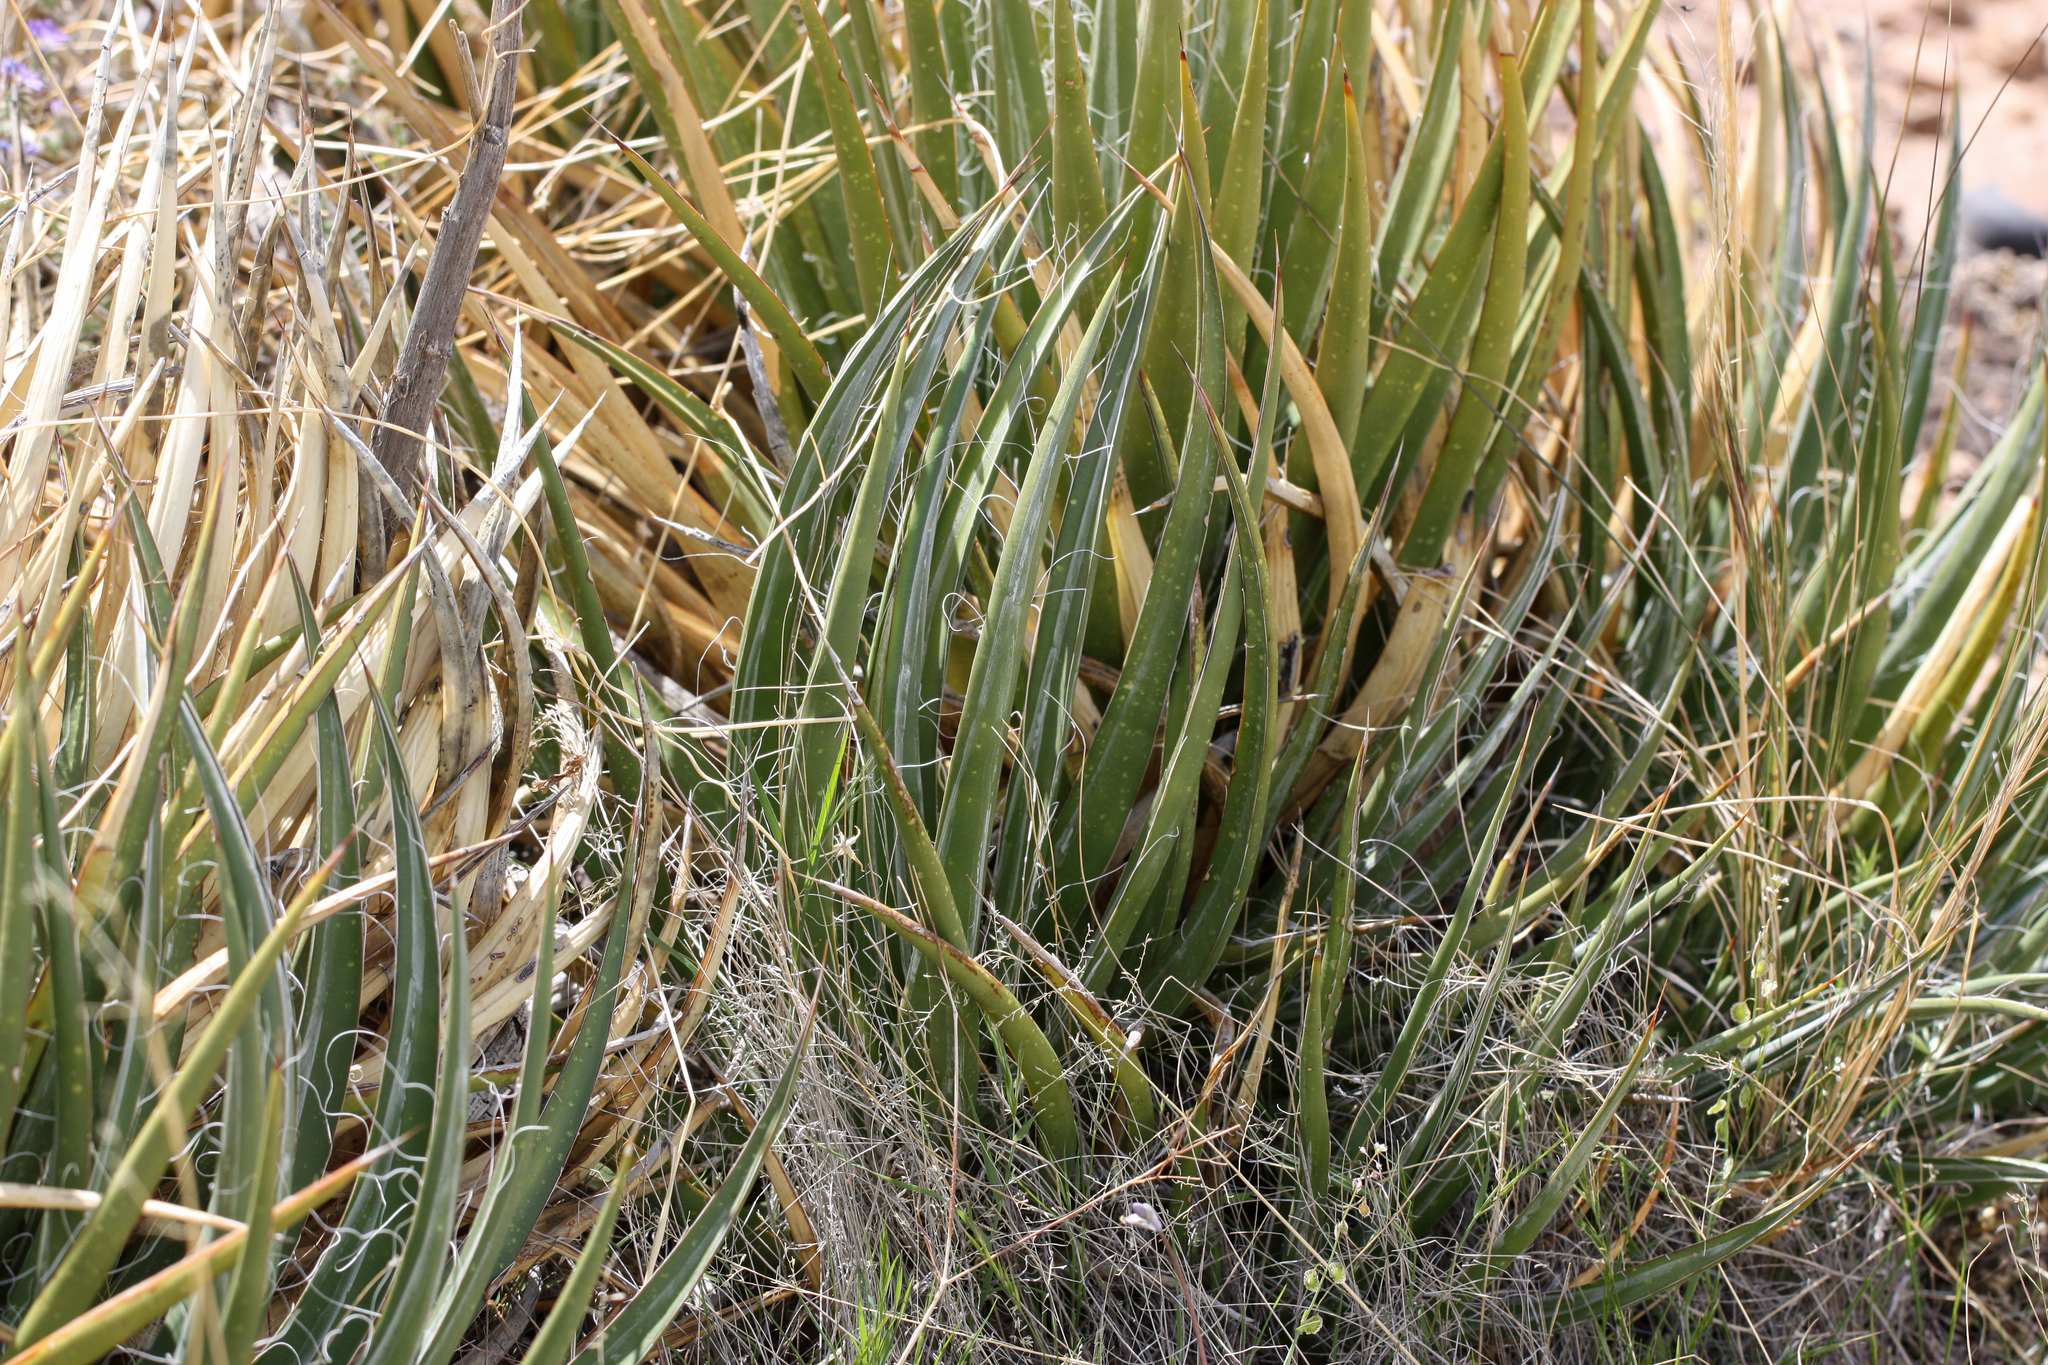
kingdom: Plantae
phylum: Tracheophyta
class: Liliopsida
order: Asparagales
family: Asparagaceae
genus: Agave
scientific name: Agave toumeyana
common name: Toumey's agave
